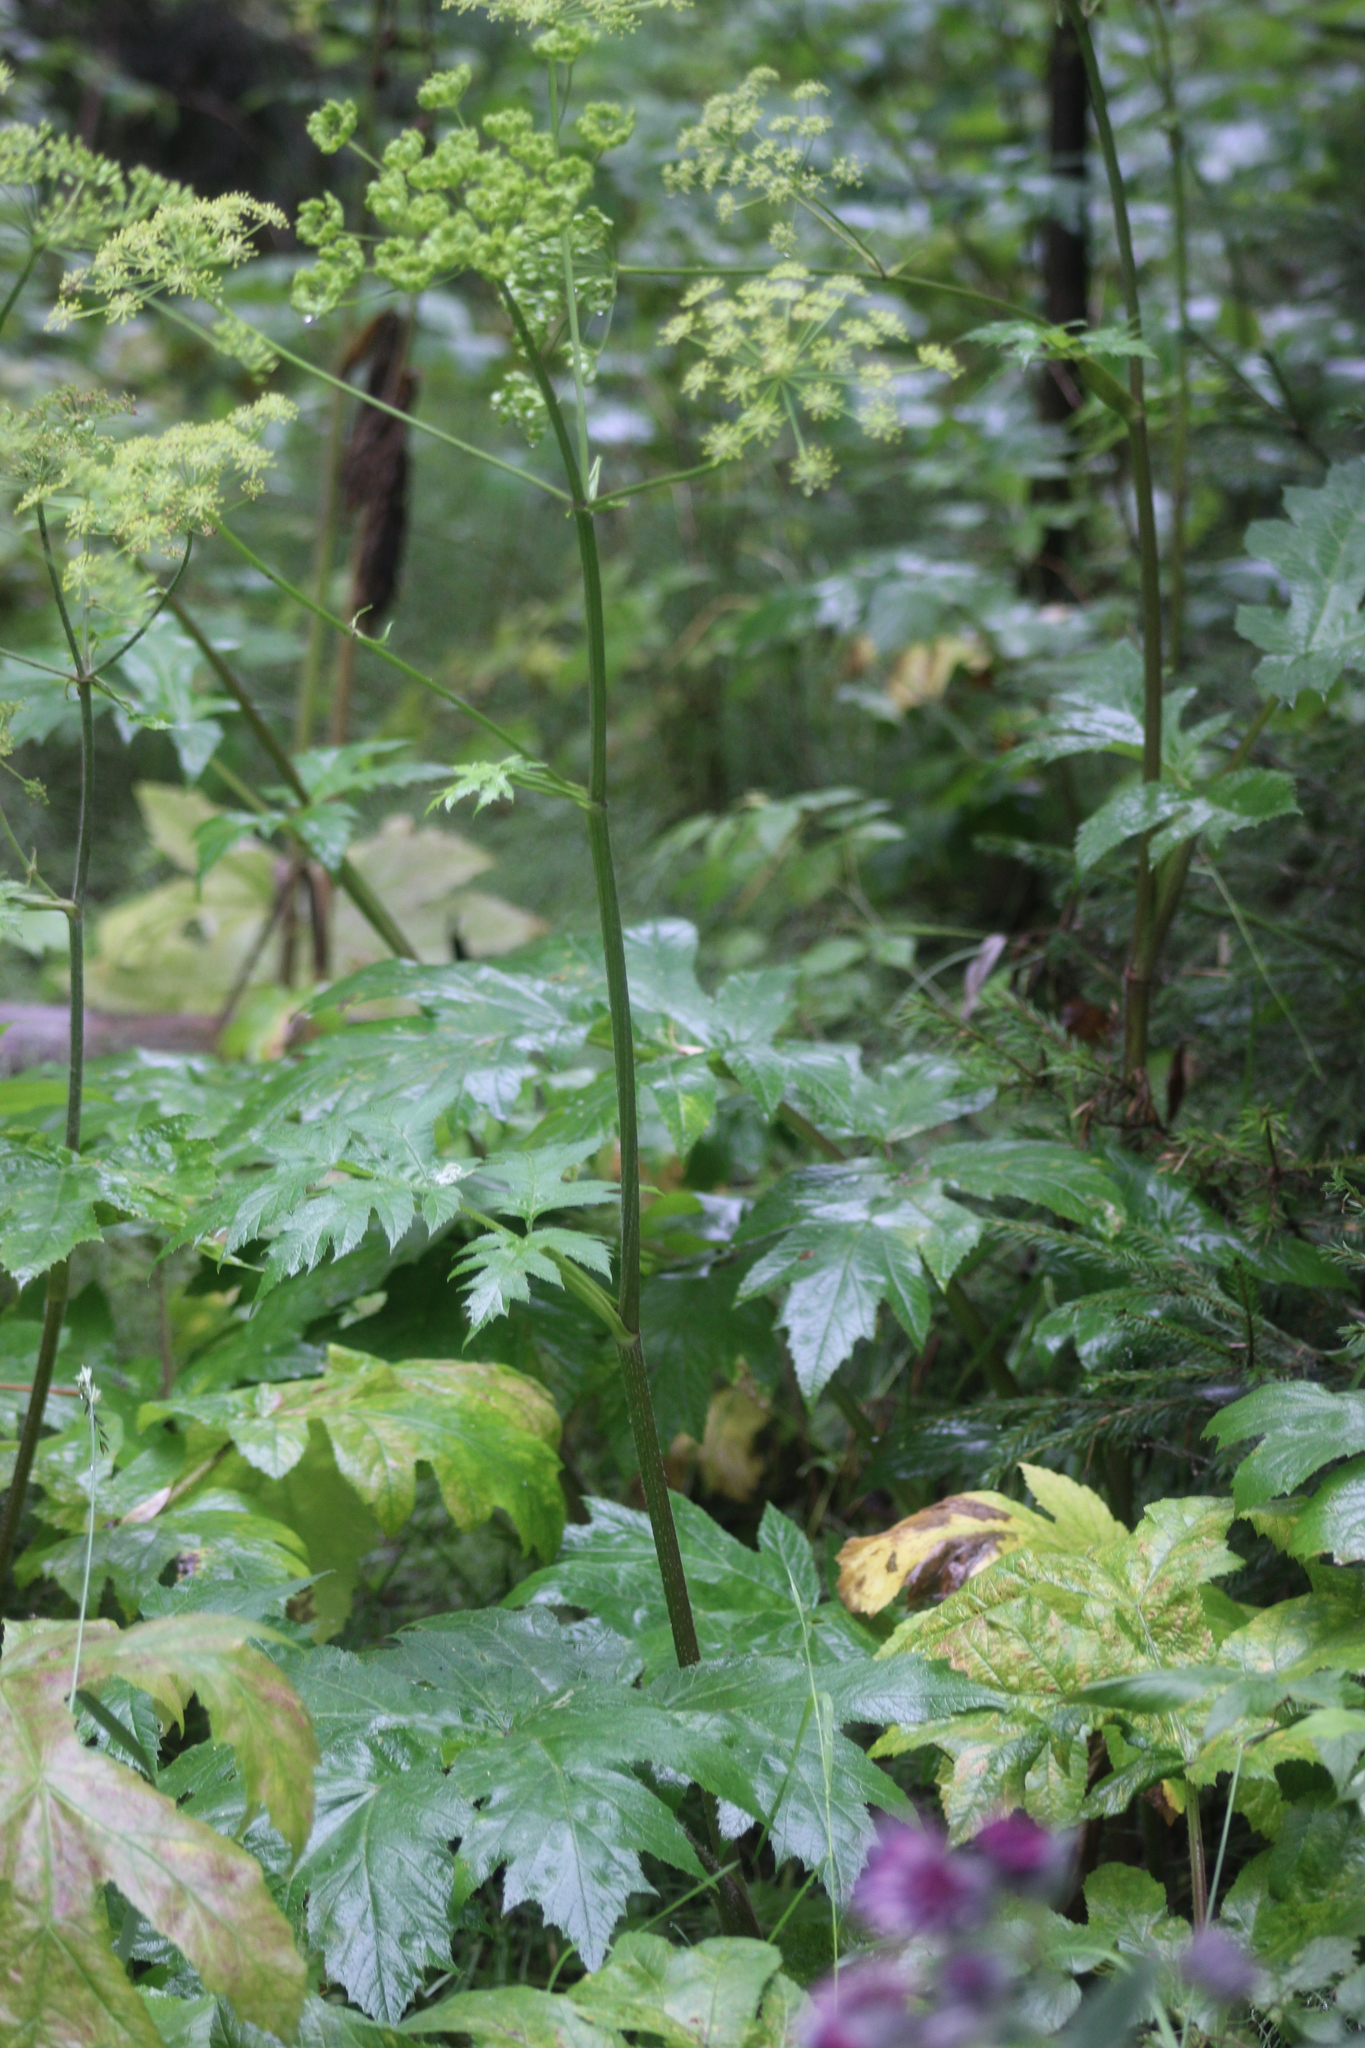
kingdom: Plantae
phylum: Tracheophyta
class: Magnoliopsida
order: Apiales
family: Apiaceae
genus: Heracleum
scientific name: Heracleum sphondylium
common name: Hogweed
